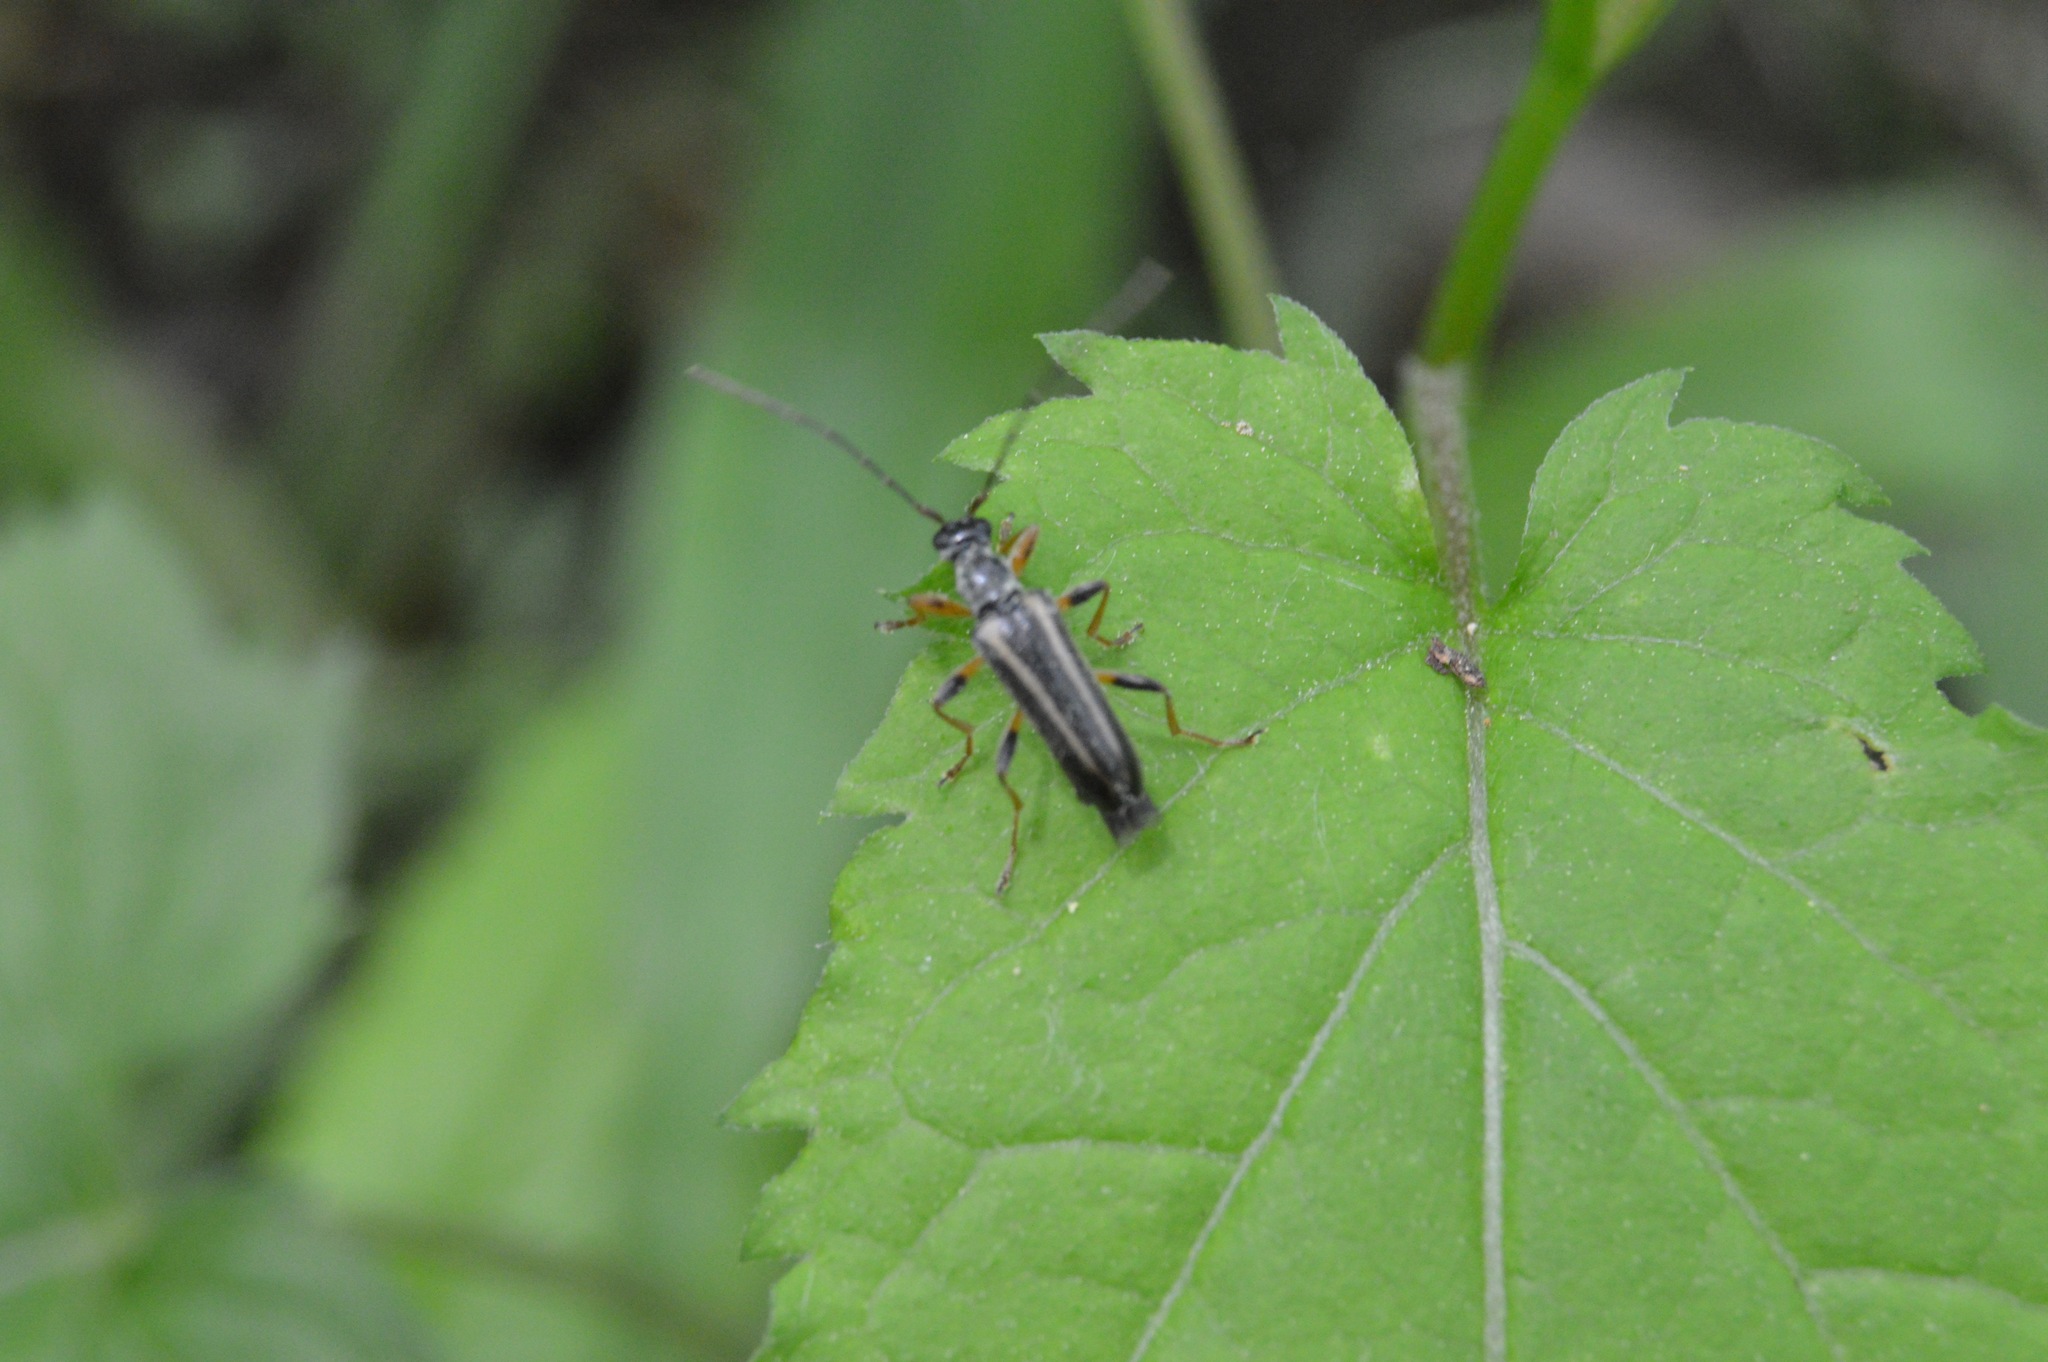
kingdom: Animalia
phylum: Arthropoda
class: Insecta
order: Coleoptera
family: Cerambycidae
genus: Pidonia
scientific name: Pidonia ruficollis
